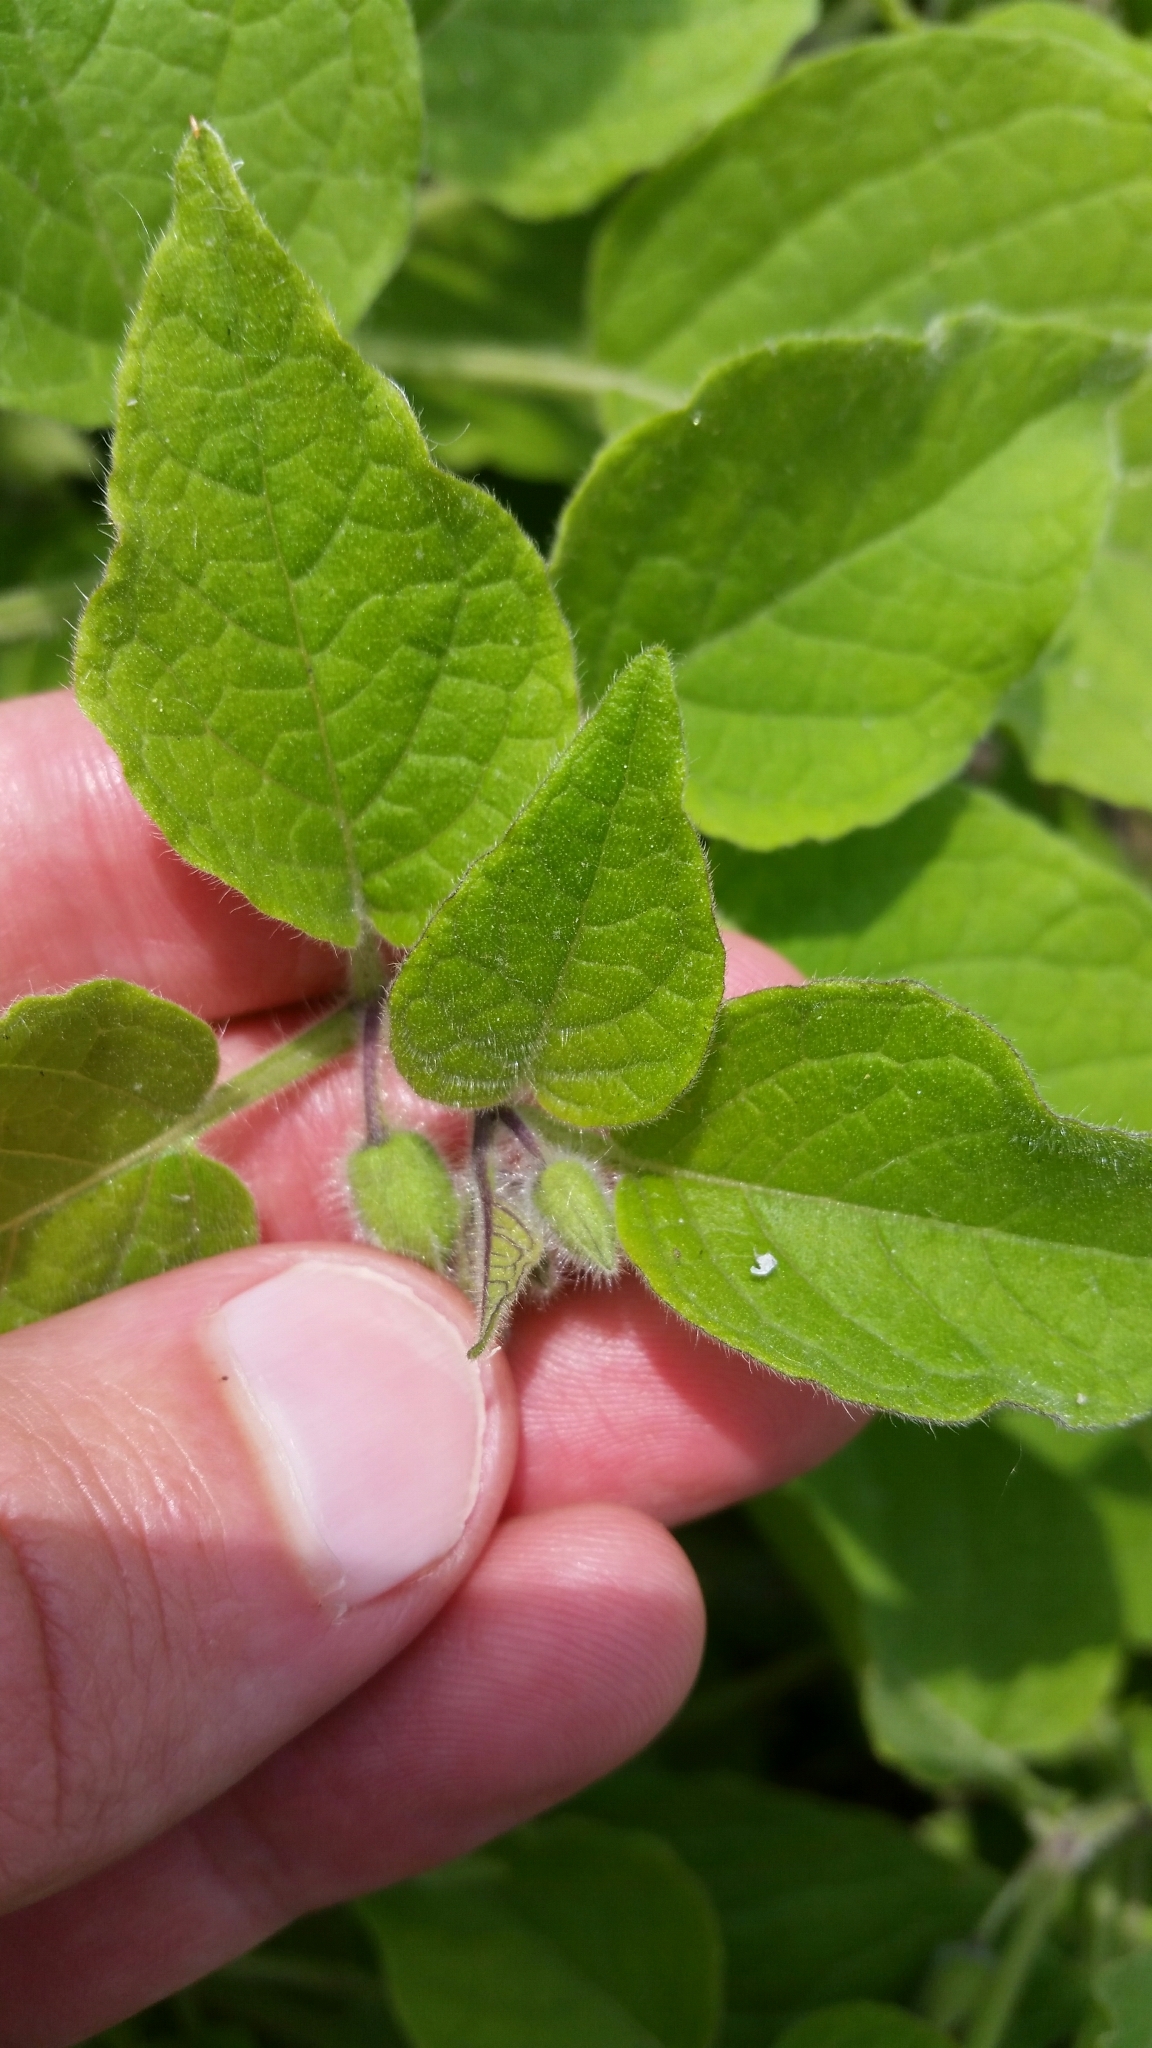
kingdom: Plantae
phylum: Tracheophyta
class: Magnoliopsida
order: Solanales
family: Solanaceae
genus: Physalis
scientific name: Physalis heterophylla
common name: Clammy ground-cherry
